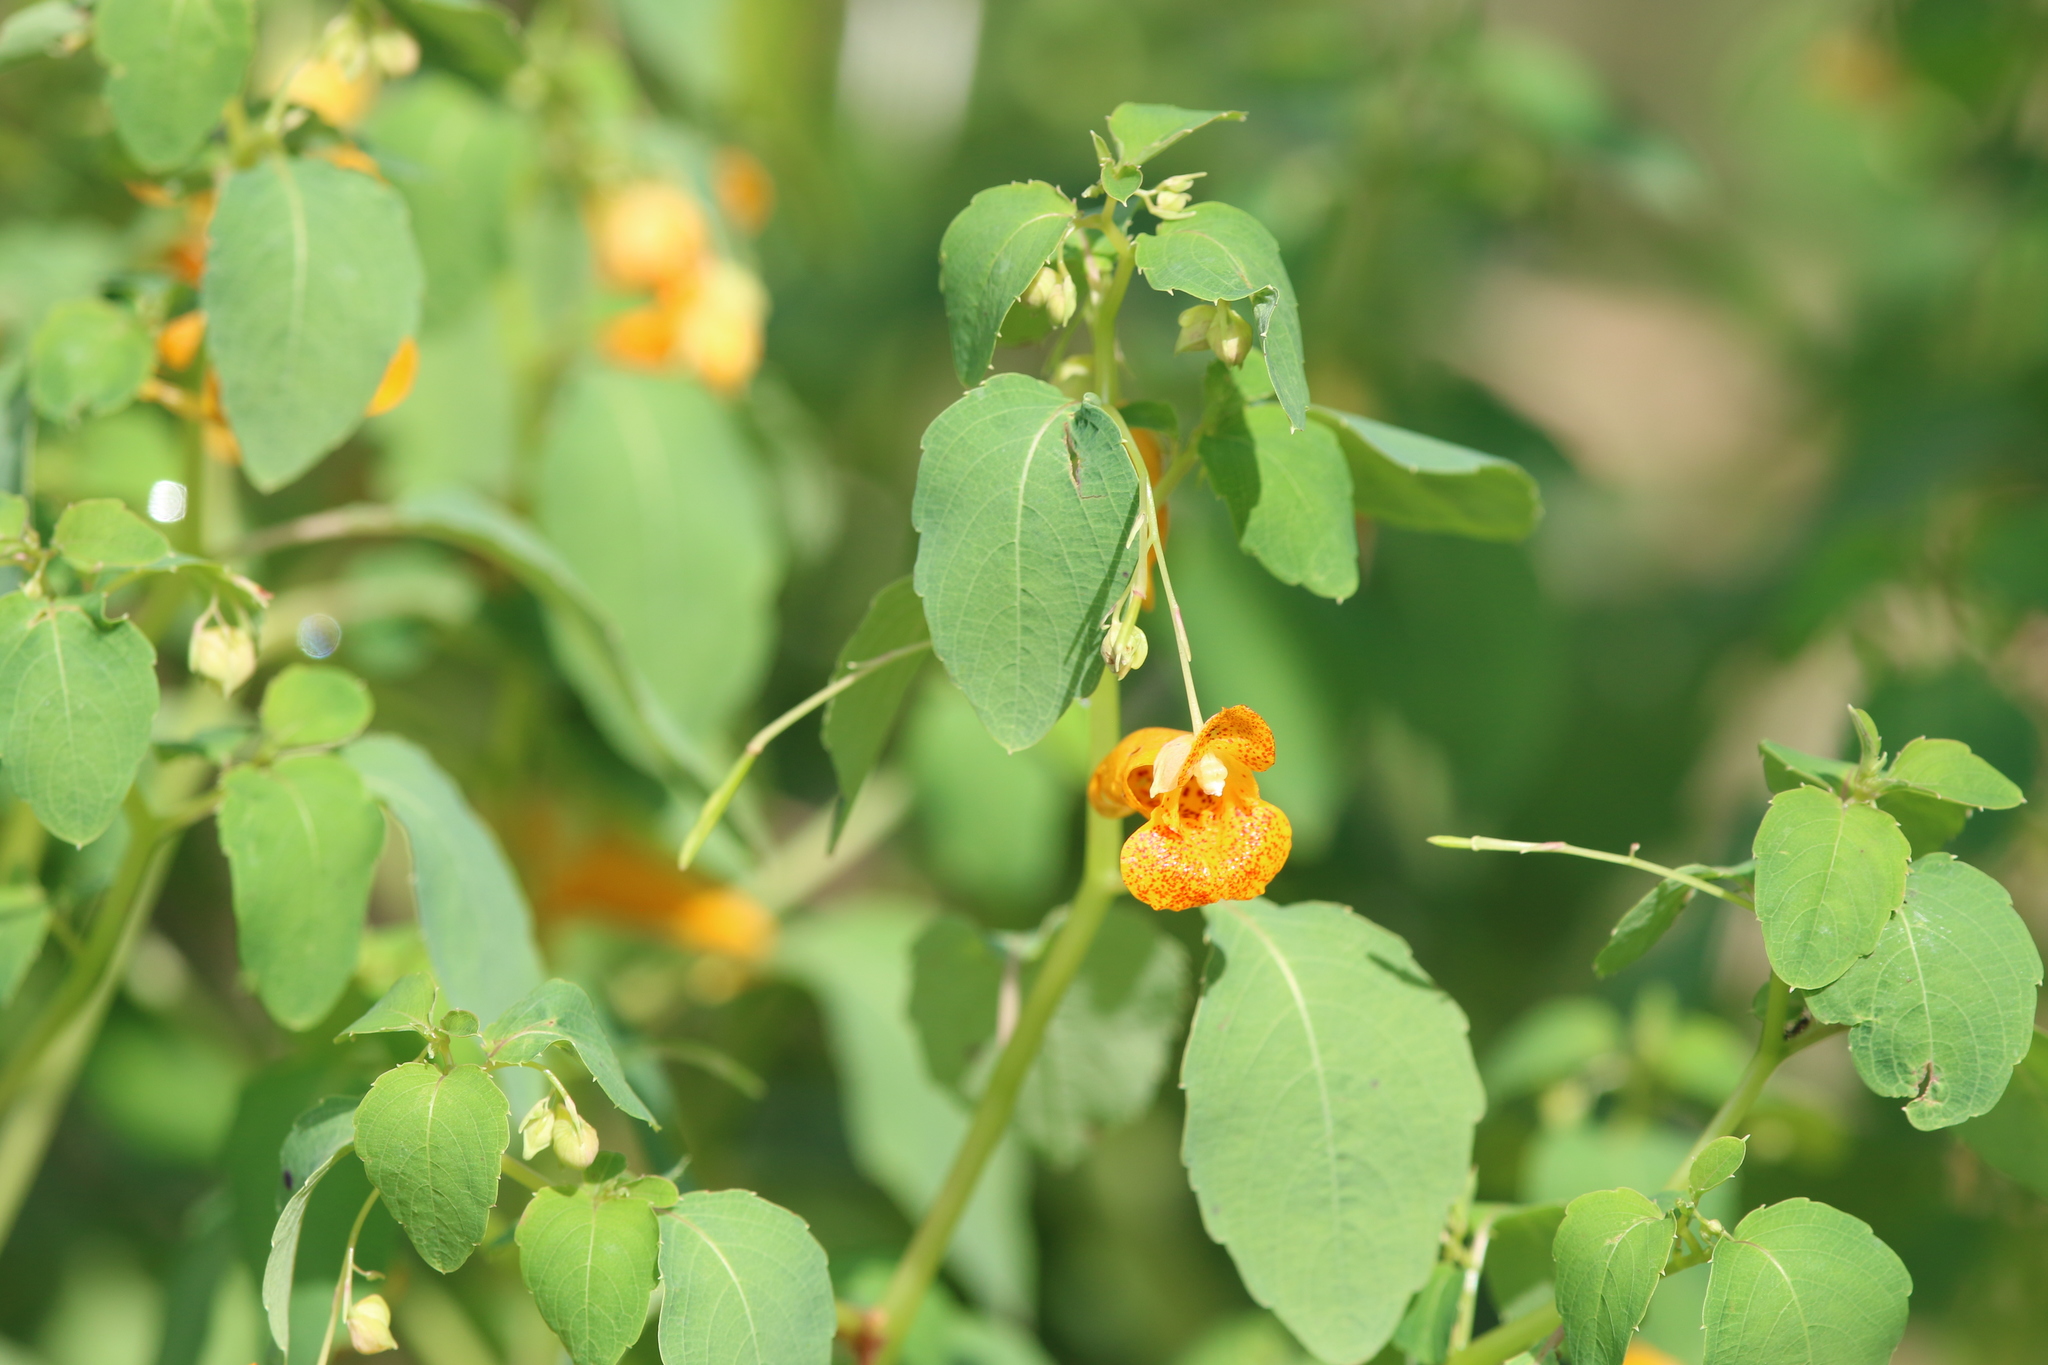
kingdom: Plantae
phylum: Tracheophyta
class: Magnoliopsida
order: Ericales
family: Balsaminaceae
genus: Impatiens
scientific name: Impatiens capensis
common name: Orange balsam
